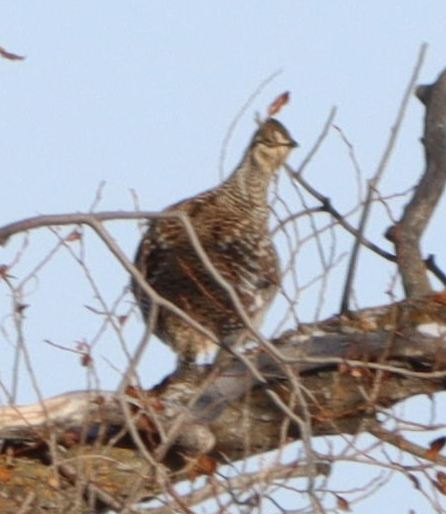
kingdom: Animalia
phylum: Chordata
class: Aves
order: Galliformes
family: Phasianidae
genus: Tympanuchus
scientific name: Tympanuchus phasianellus
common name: Sharp-tailed grouse
